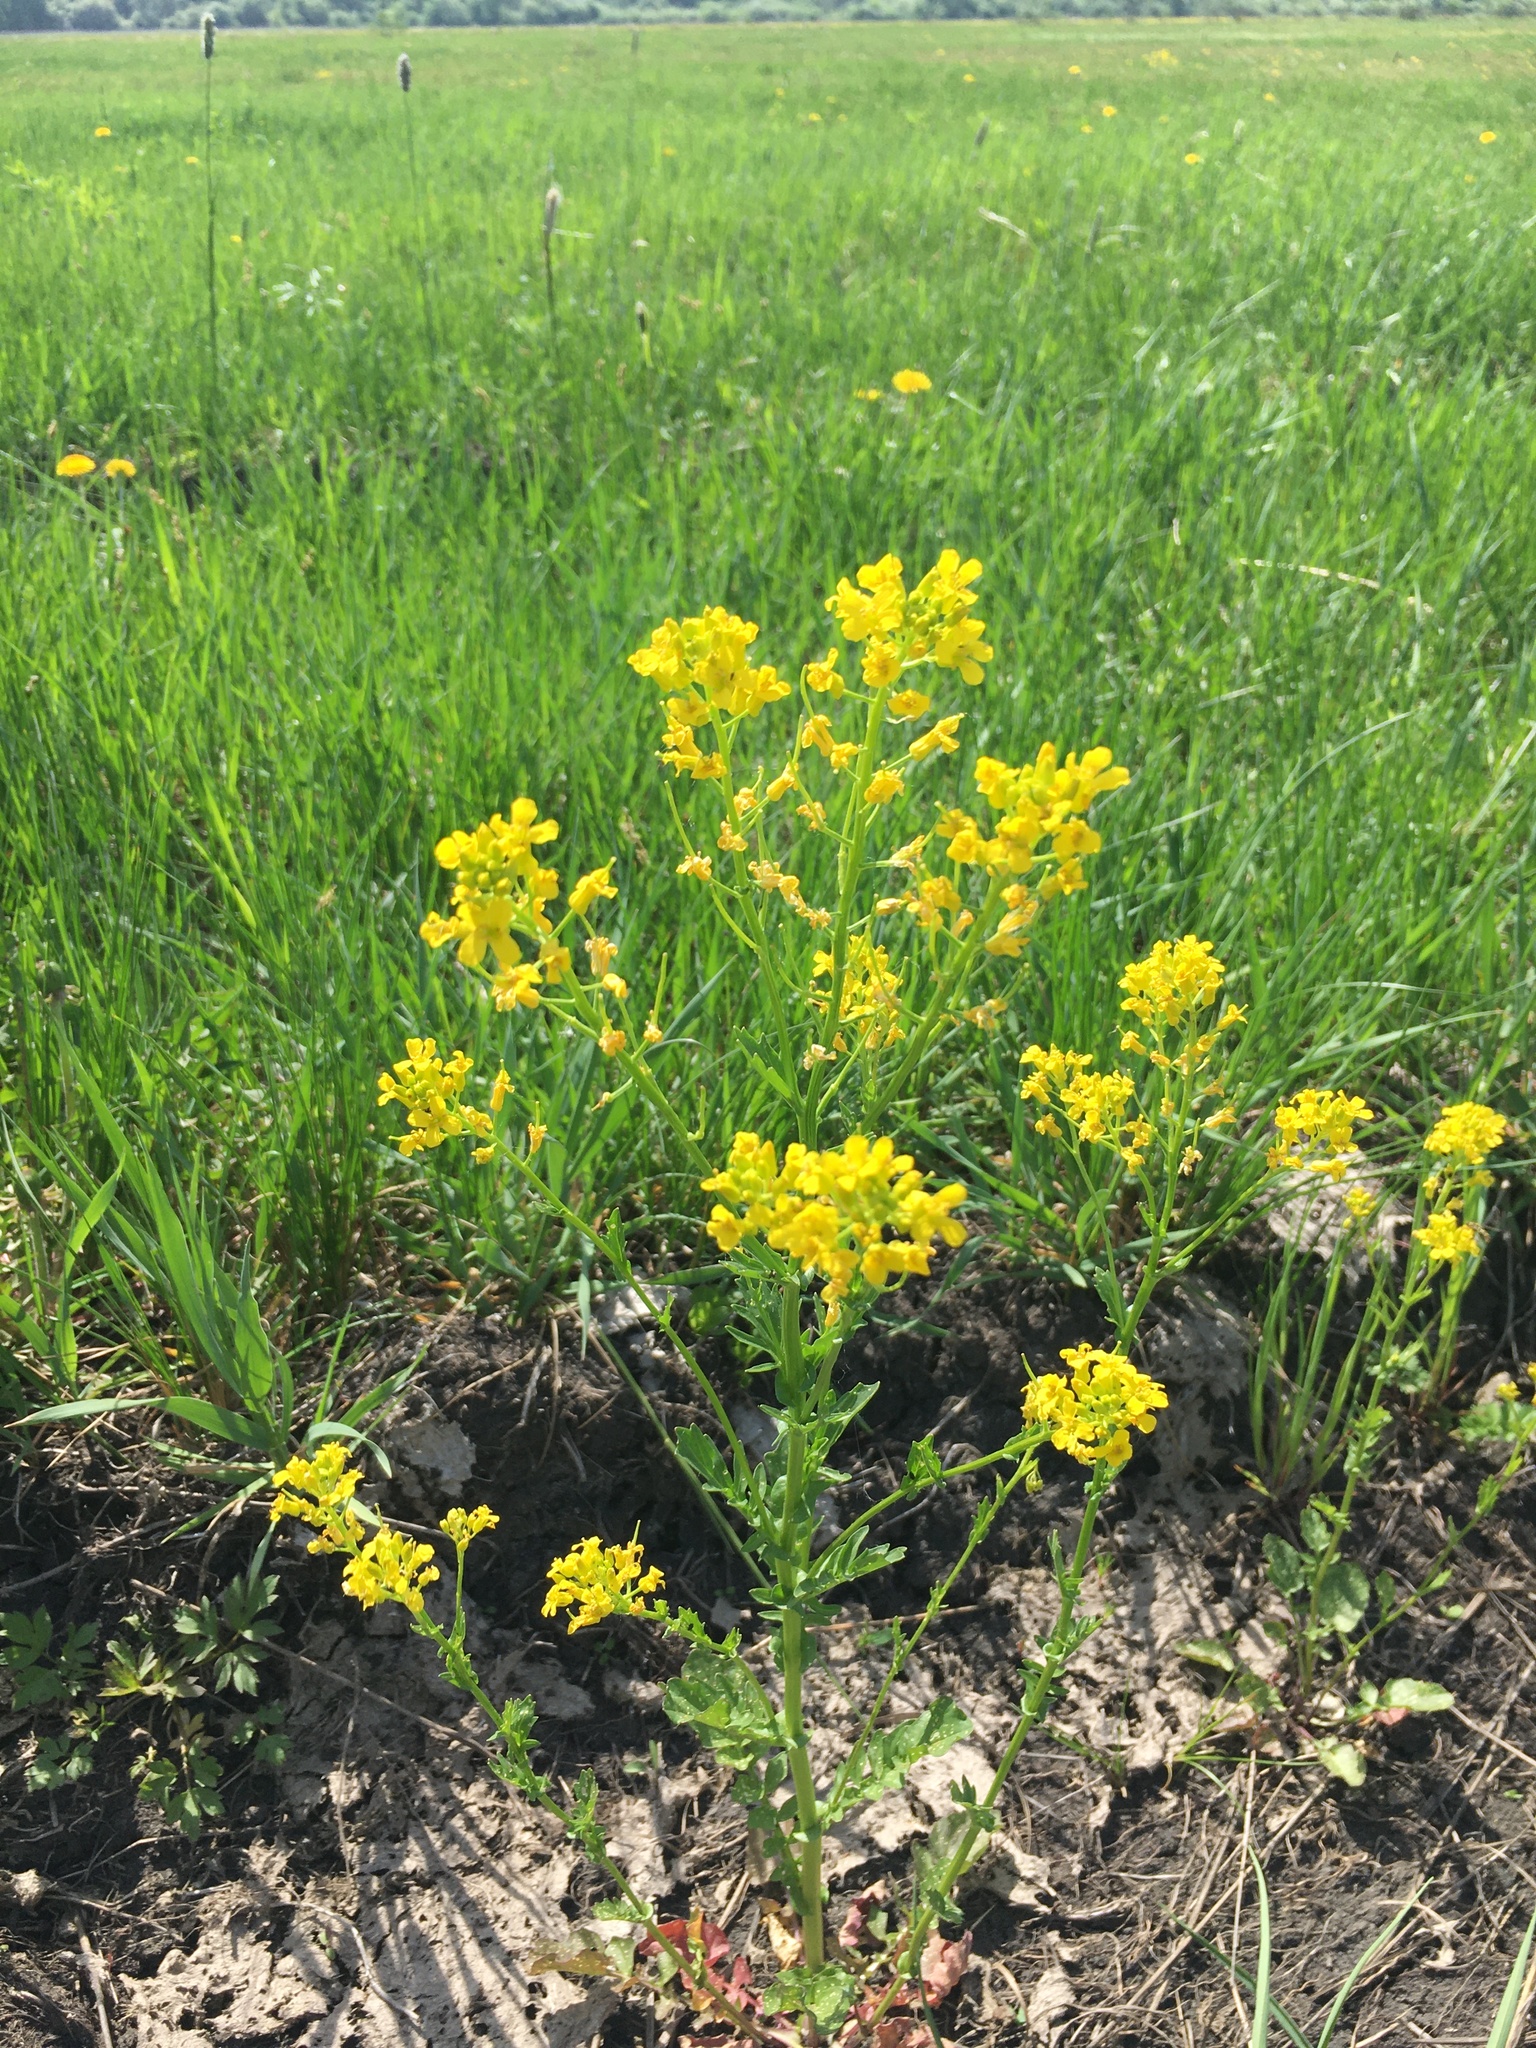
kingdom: Plantae
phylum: Tracheophyta
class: Magnoliopsida
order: Brassicales
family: Brassicaceae
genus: Barbarea
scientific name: Barbarea vulgaris
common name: Cressy-greens
